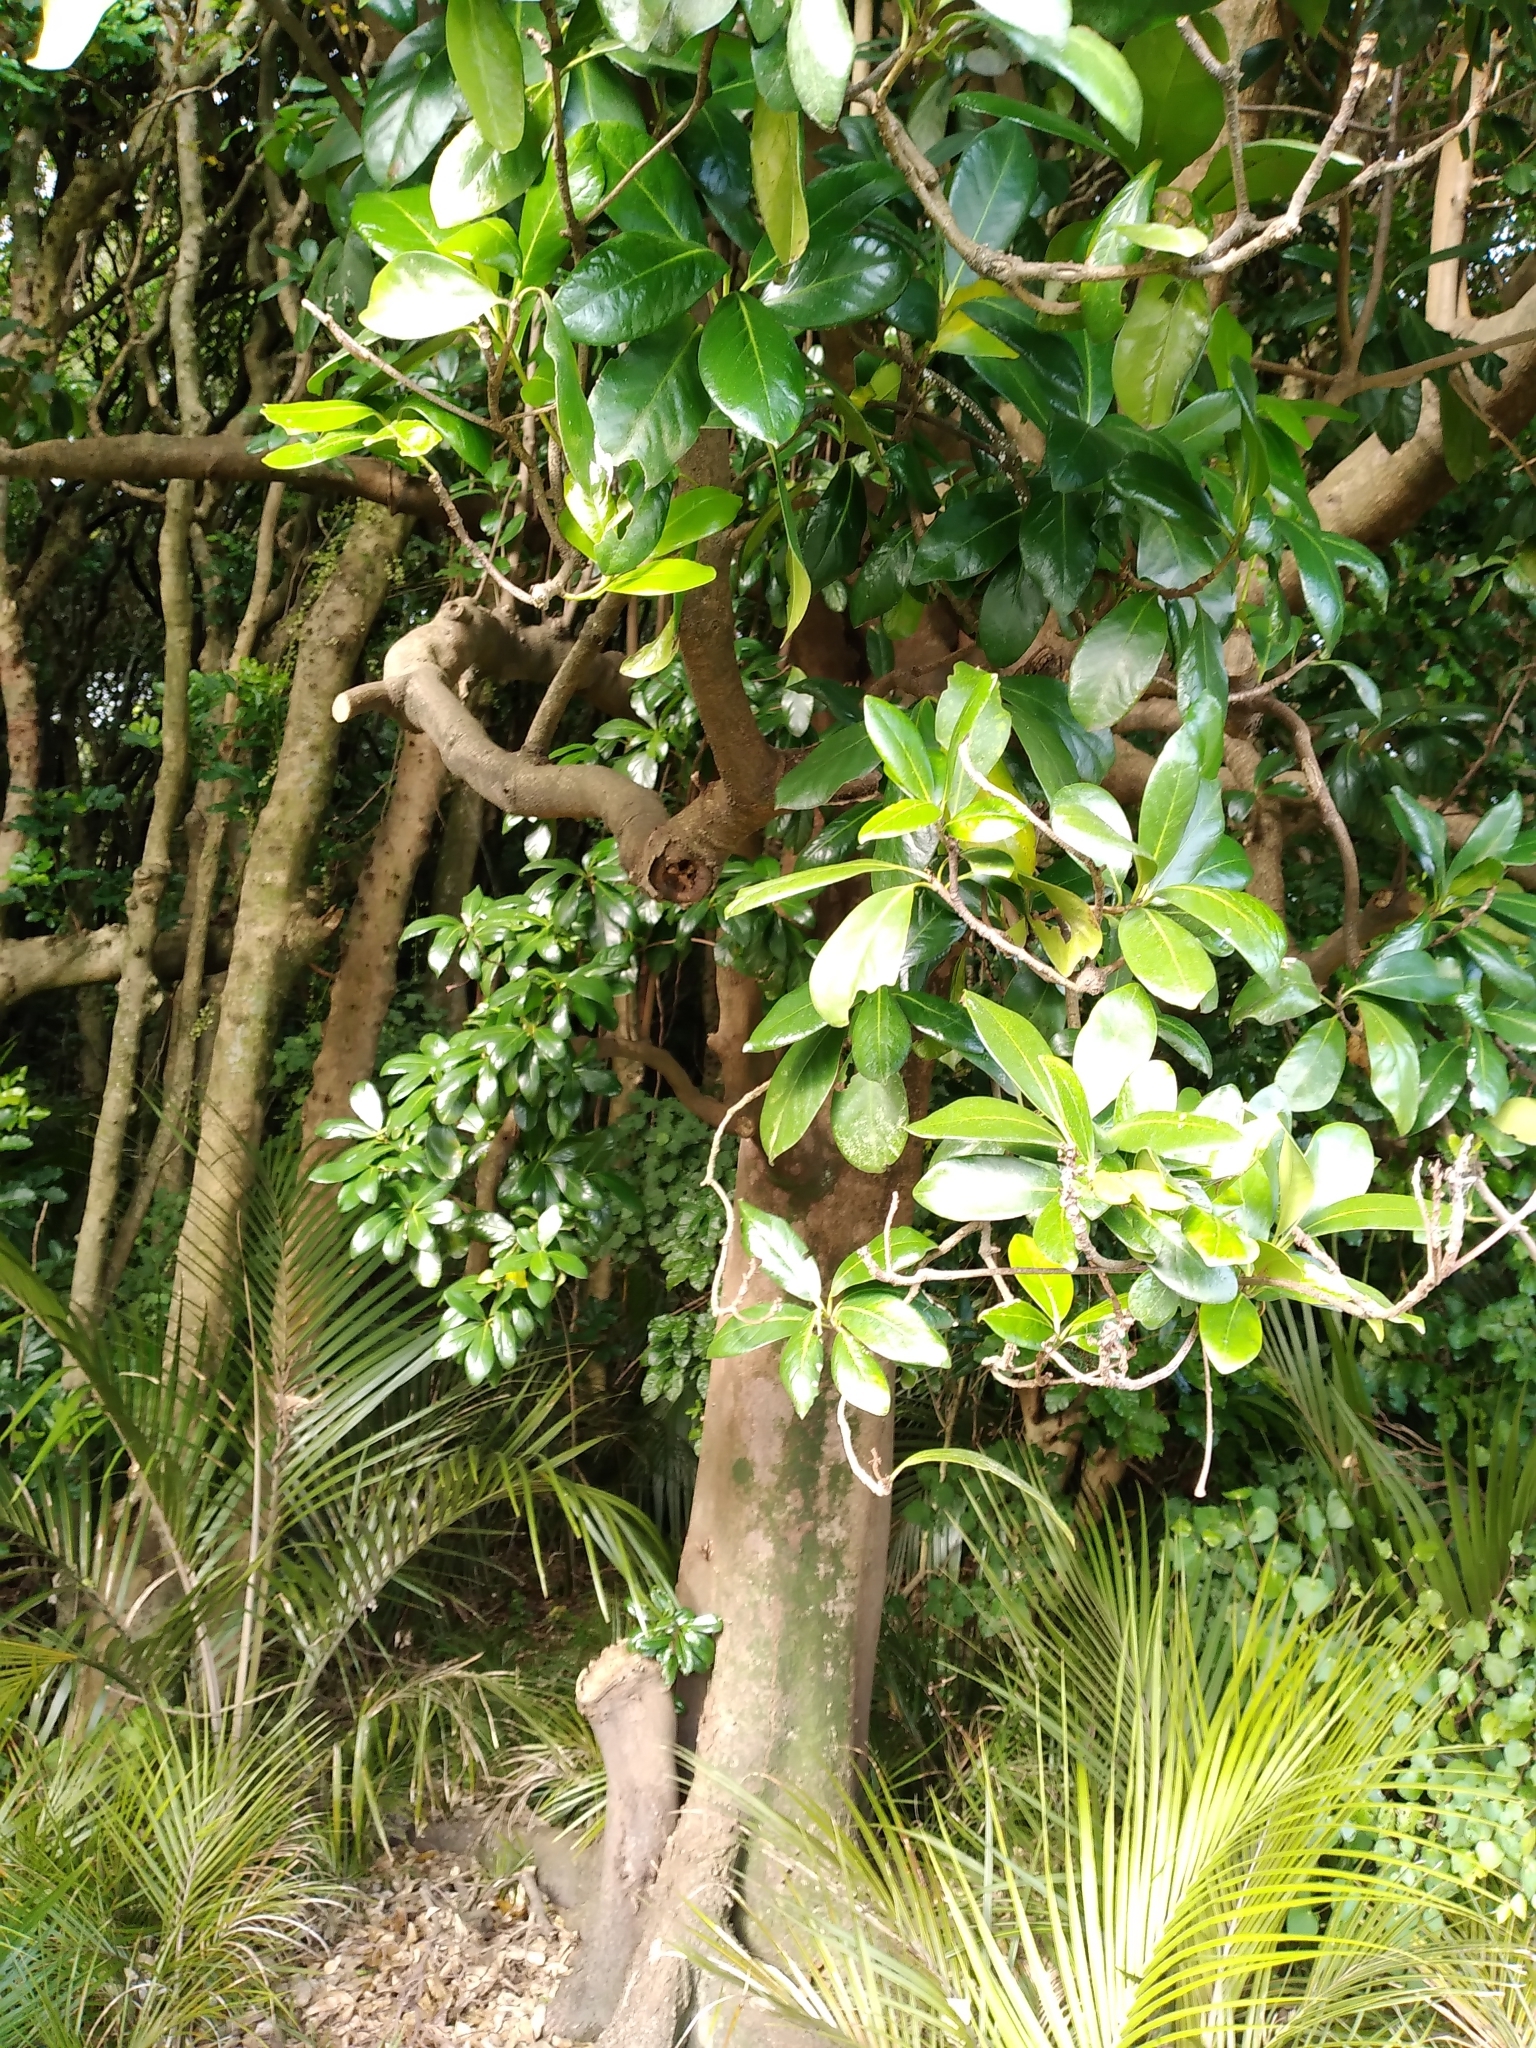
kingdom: Plantae
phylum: Tracheophyta
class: Magnoliopsida
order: Cucurbitales
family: Corynocarpaceae
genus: Corynocarpus
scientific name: Corynocarpus laevigatus
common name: New zealand laurel
